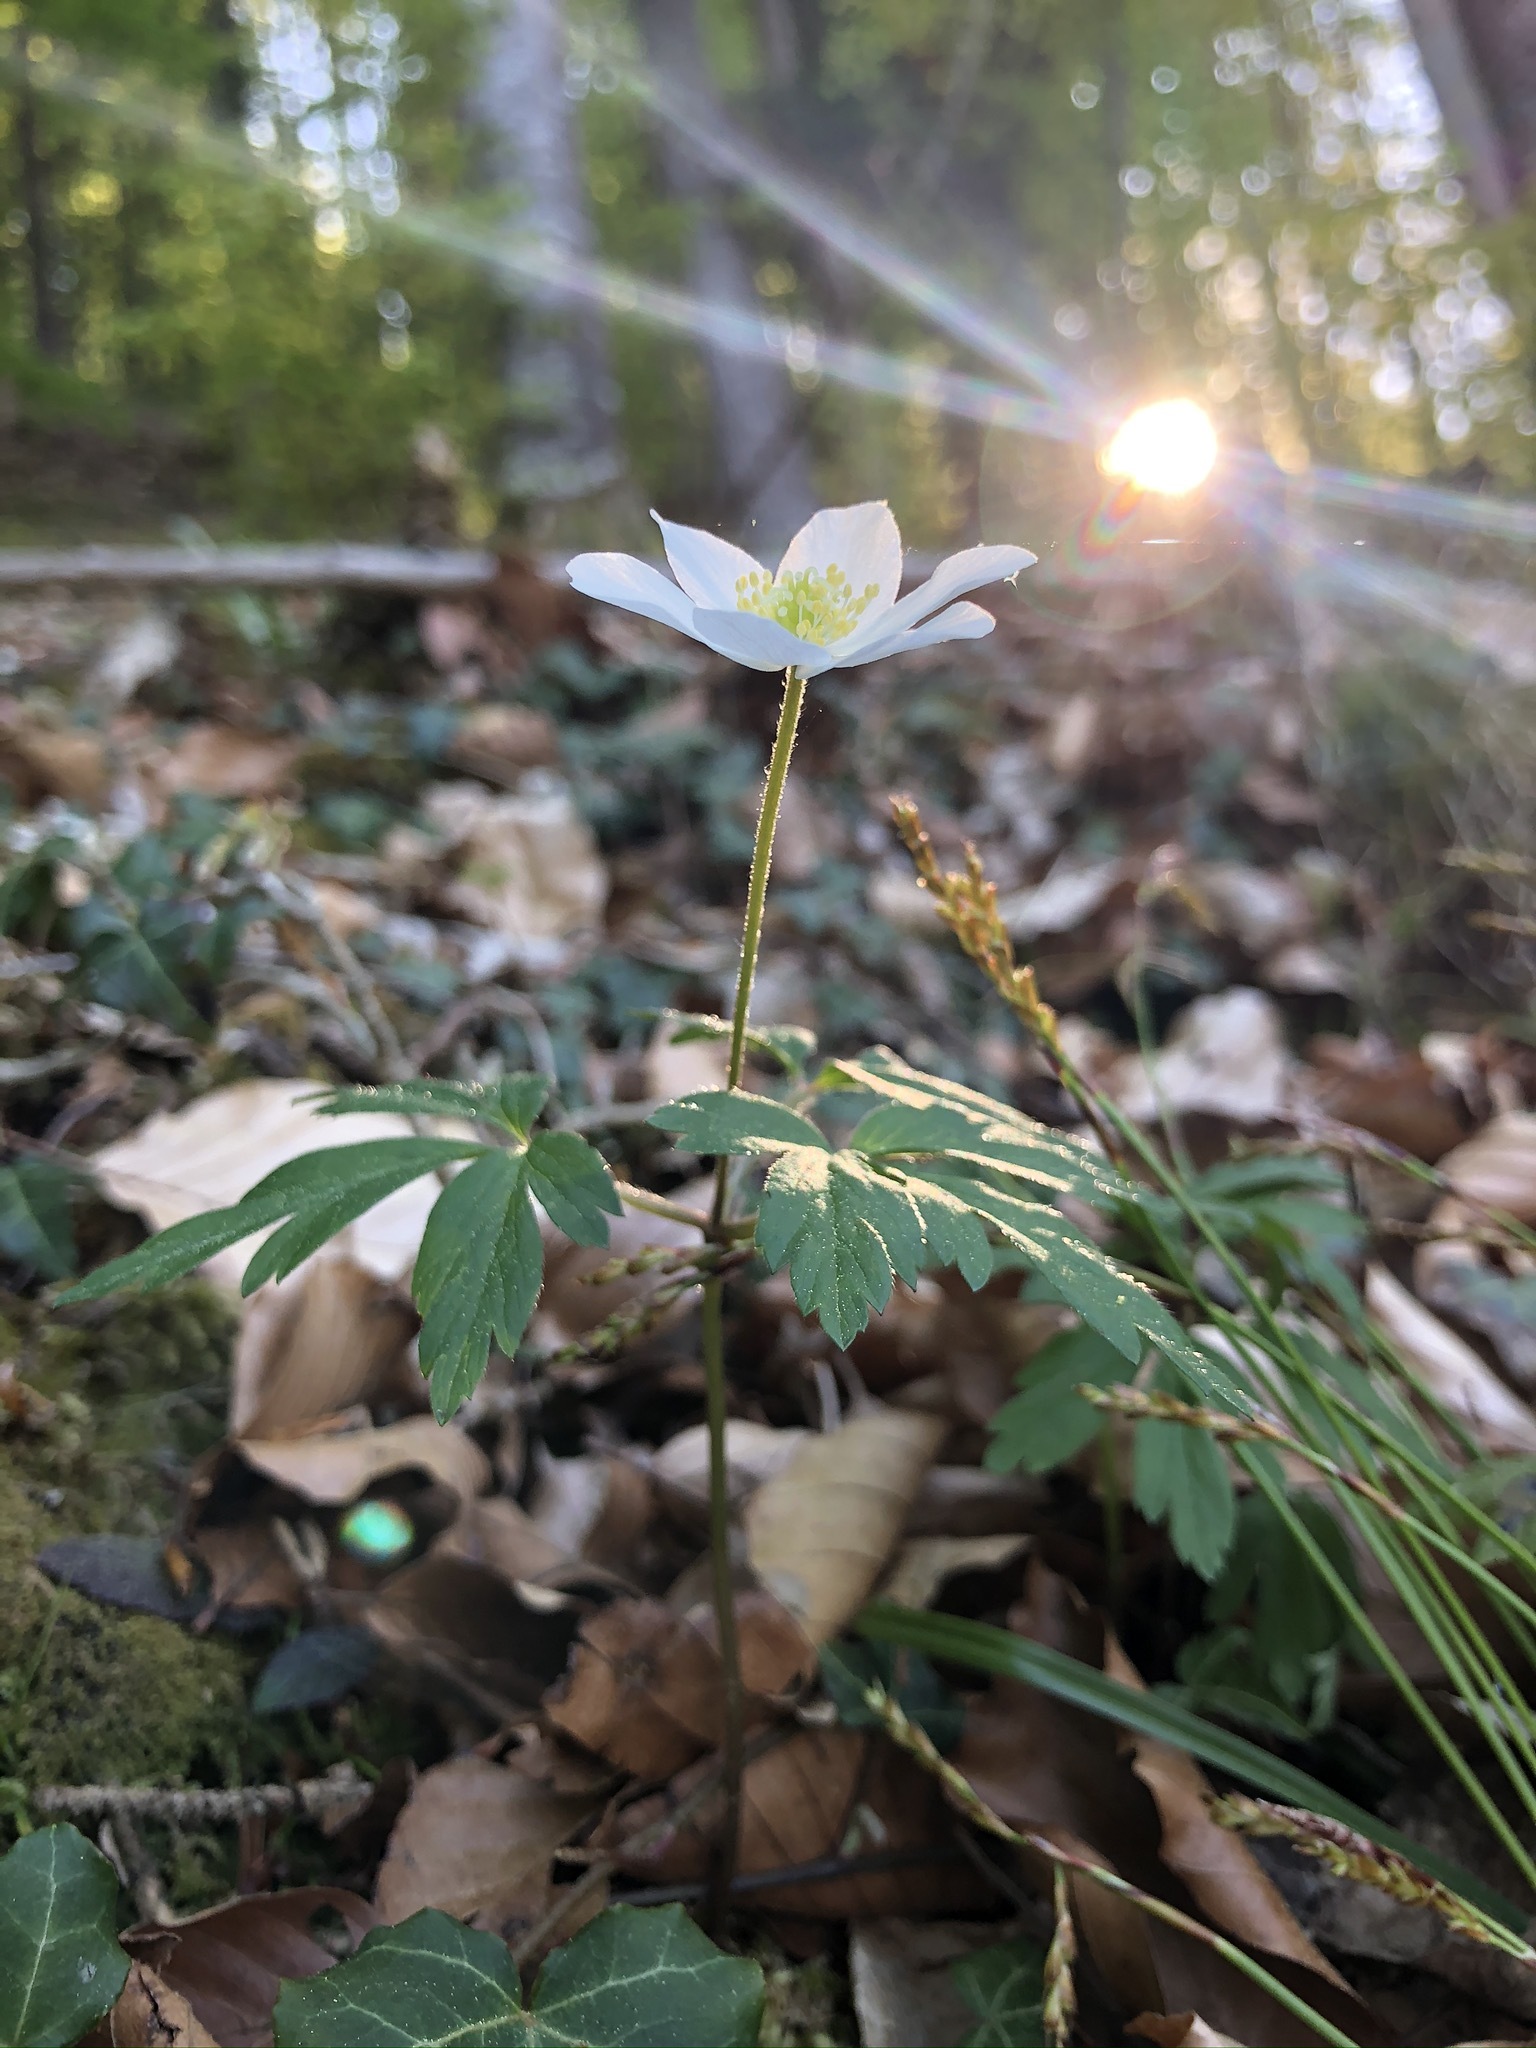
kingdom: Plantae
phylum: Tracheophyta
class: Magnoliopsida
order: Ranunculales
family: Ranunculaceae
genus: Anemone
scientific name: Anemone nemorosa
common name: Wood anemone
